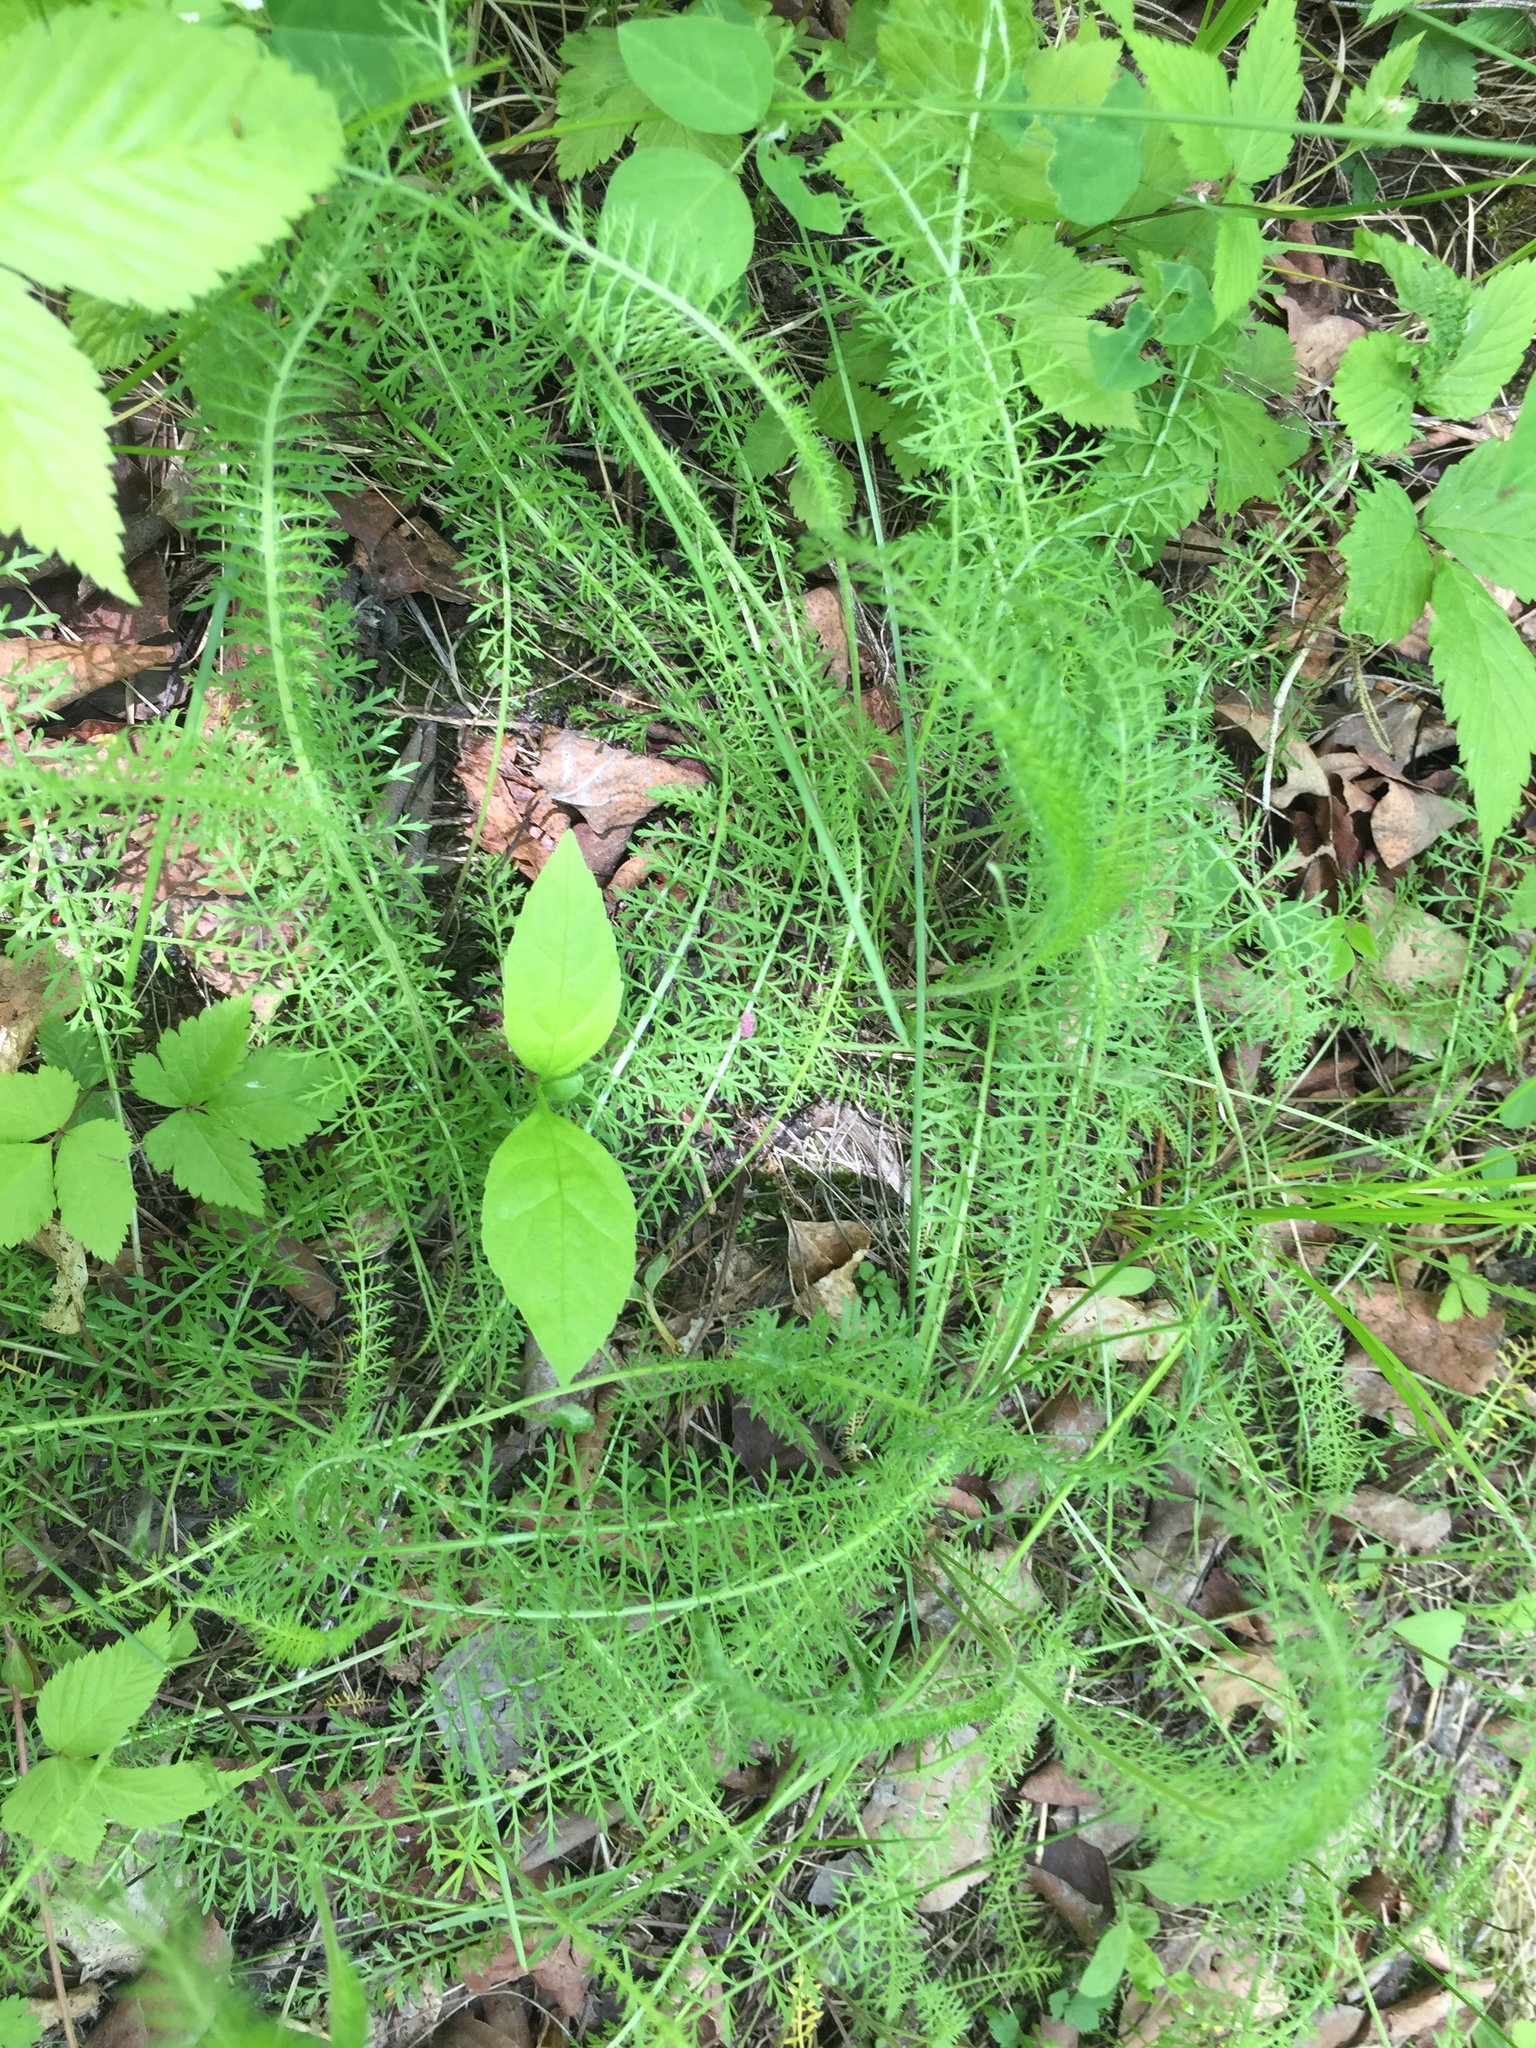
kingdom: Plantae
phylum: Tracheophyta
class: Magnoliopsida
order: Asterales
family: Asteraceae
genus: Achillea
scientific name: Achillea millefolium
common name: Yarrow
